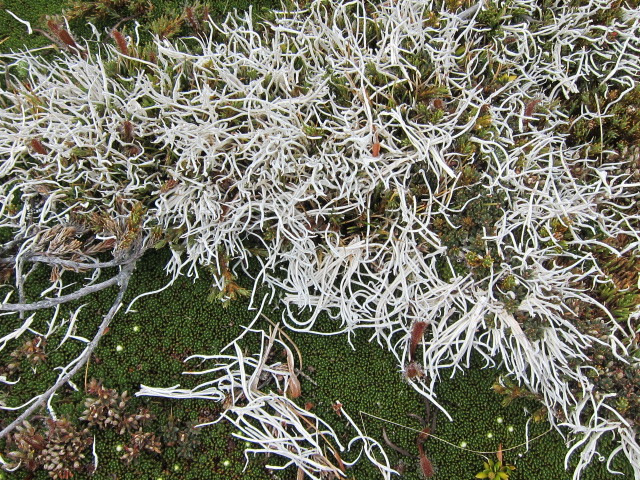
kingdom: Fungi
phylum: Ascomycota
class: Lecanoromycetes
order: Pertusariales
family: Icmadophilaceae
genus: Thamnolia
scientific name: Thamnolia vermicularis
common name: Whiteworm lichen
